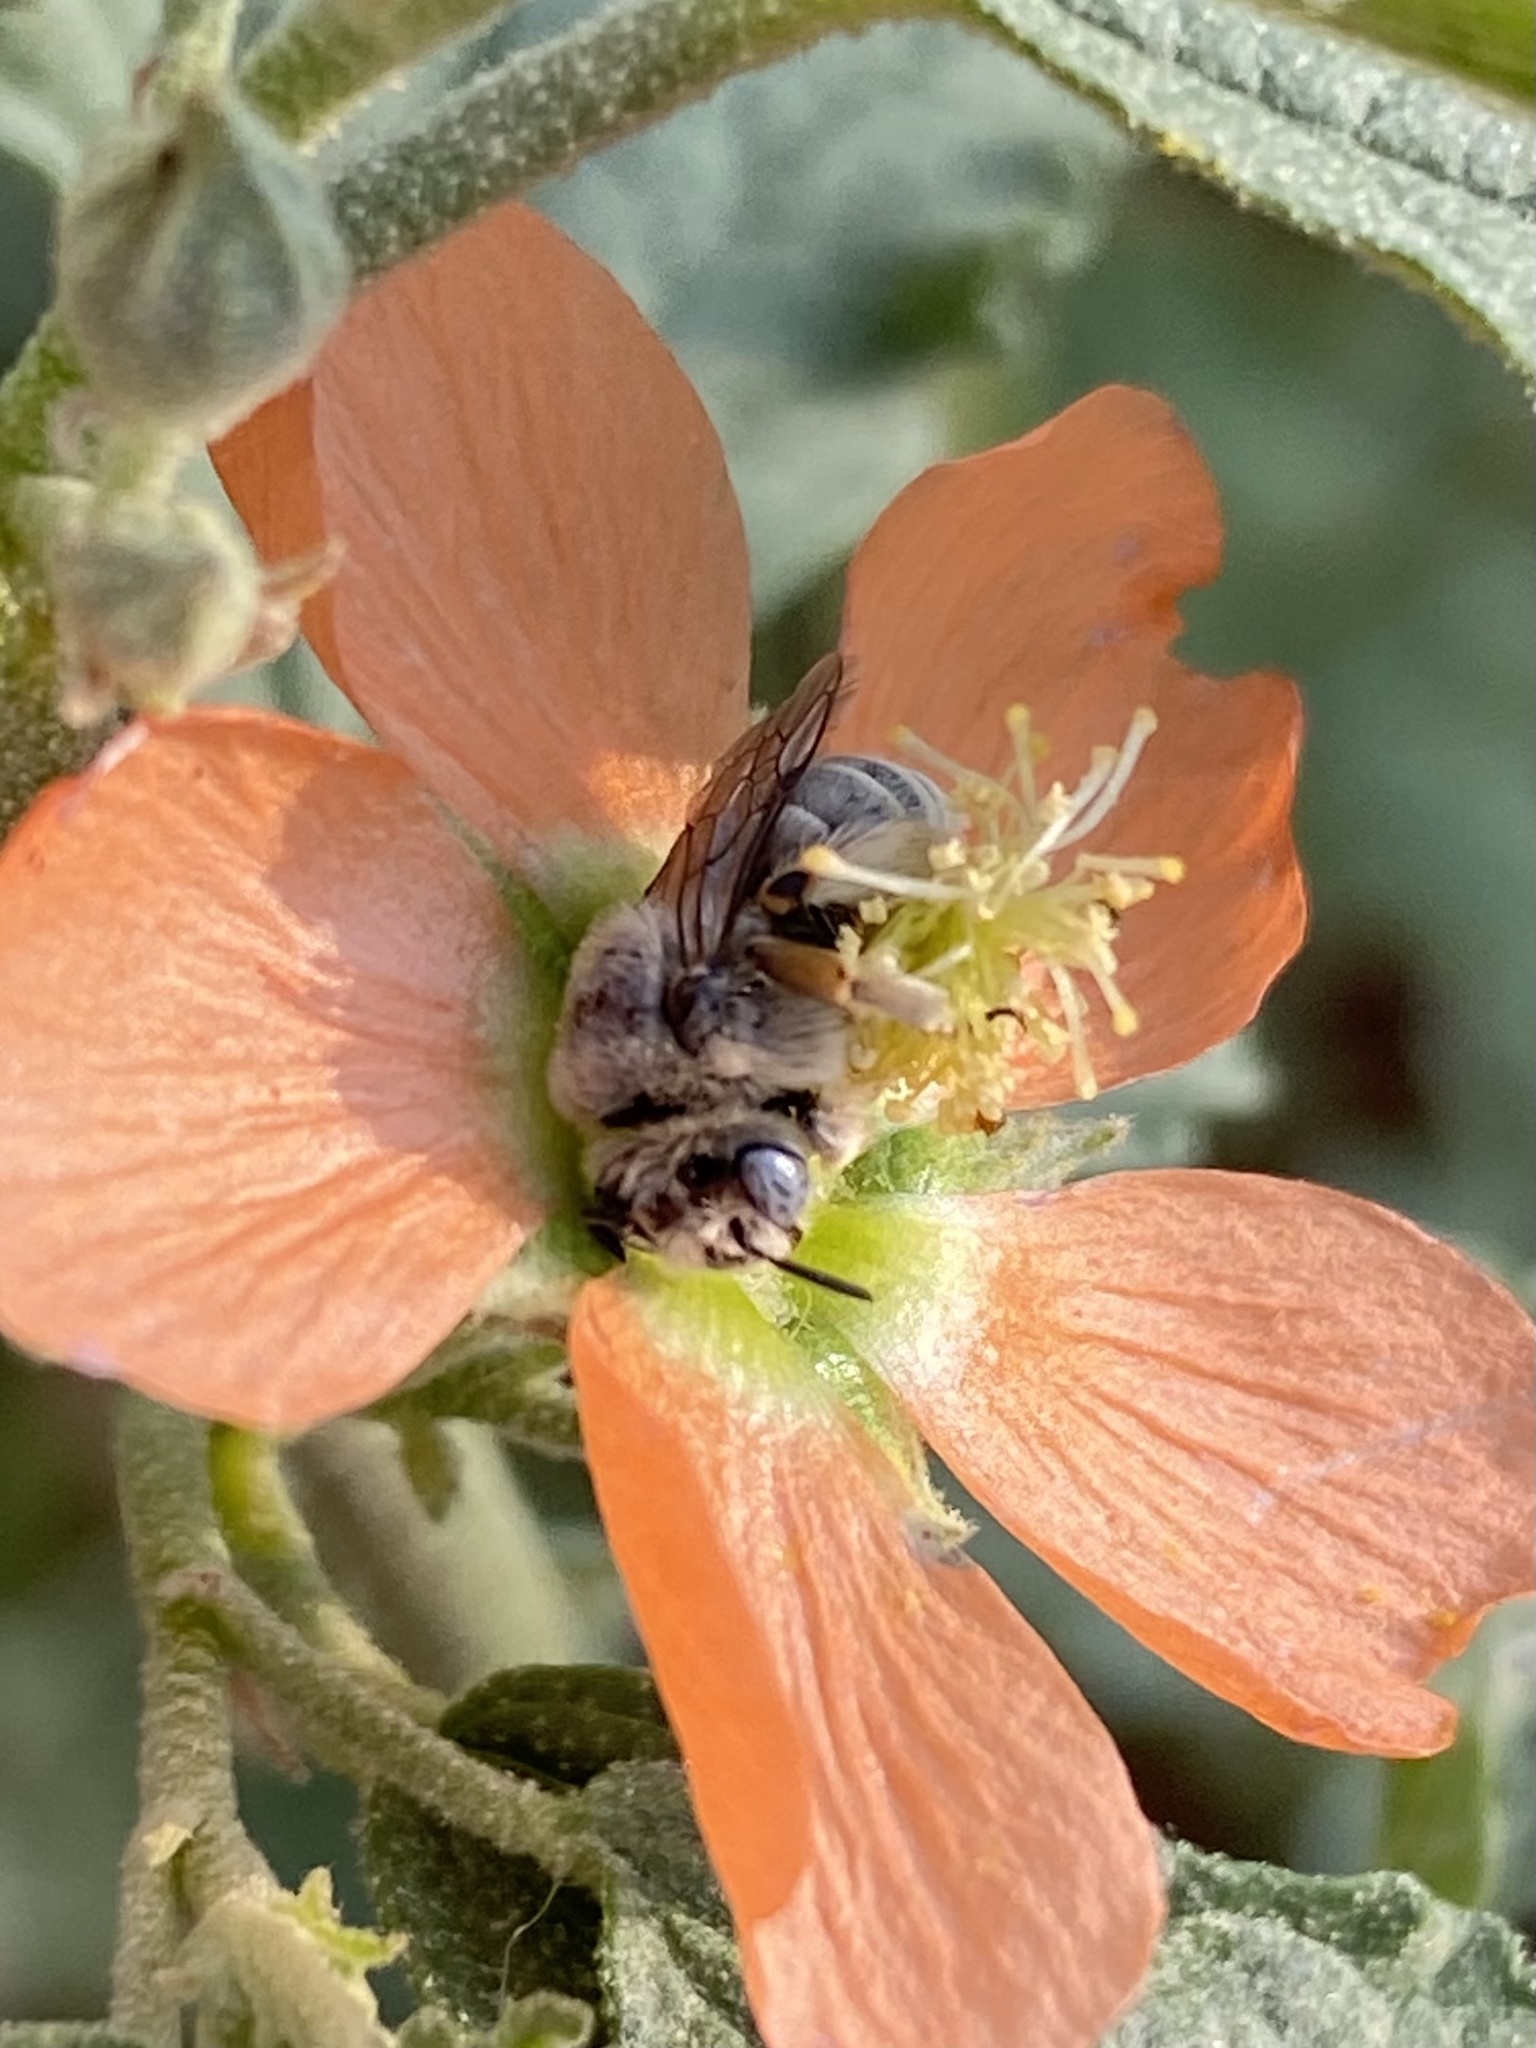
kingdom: Animalia
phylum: Arthropoda
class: Insecta
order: Hymenoptera
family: Apidae
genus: Diadasia
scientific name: Diadasia
